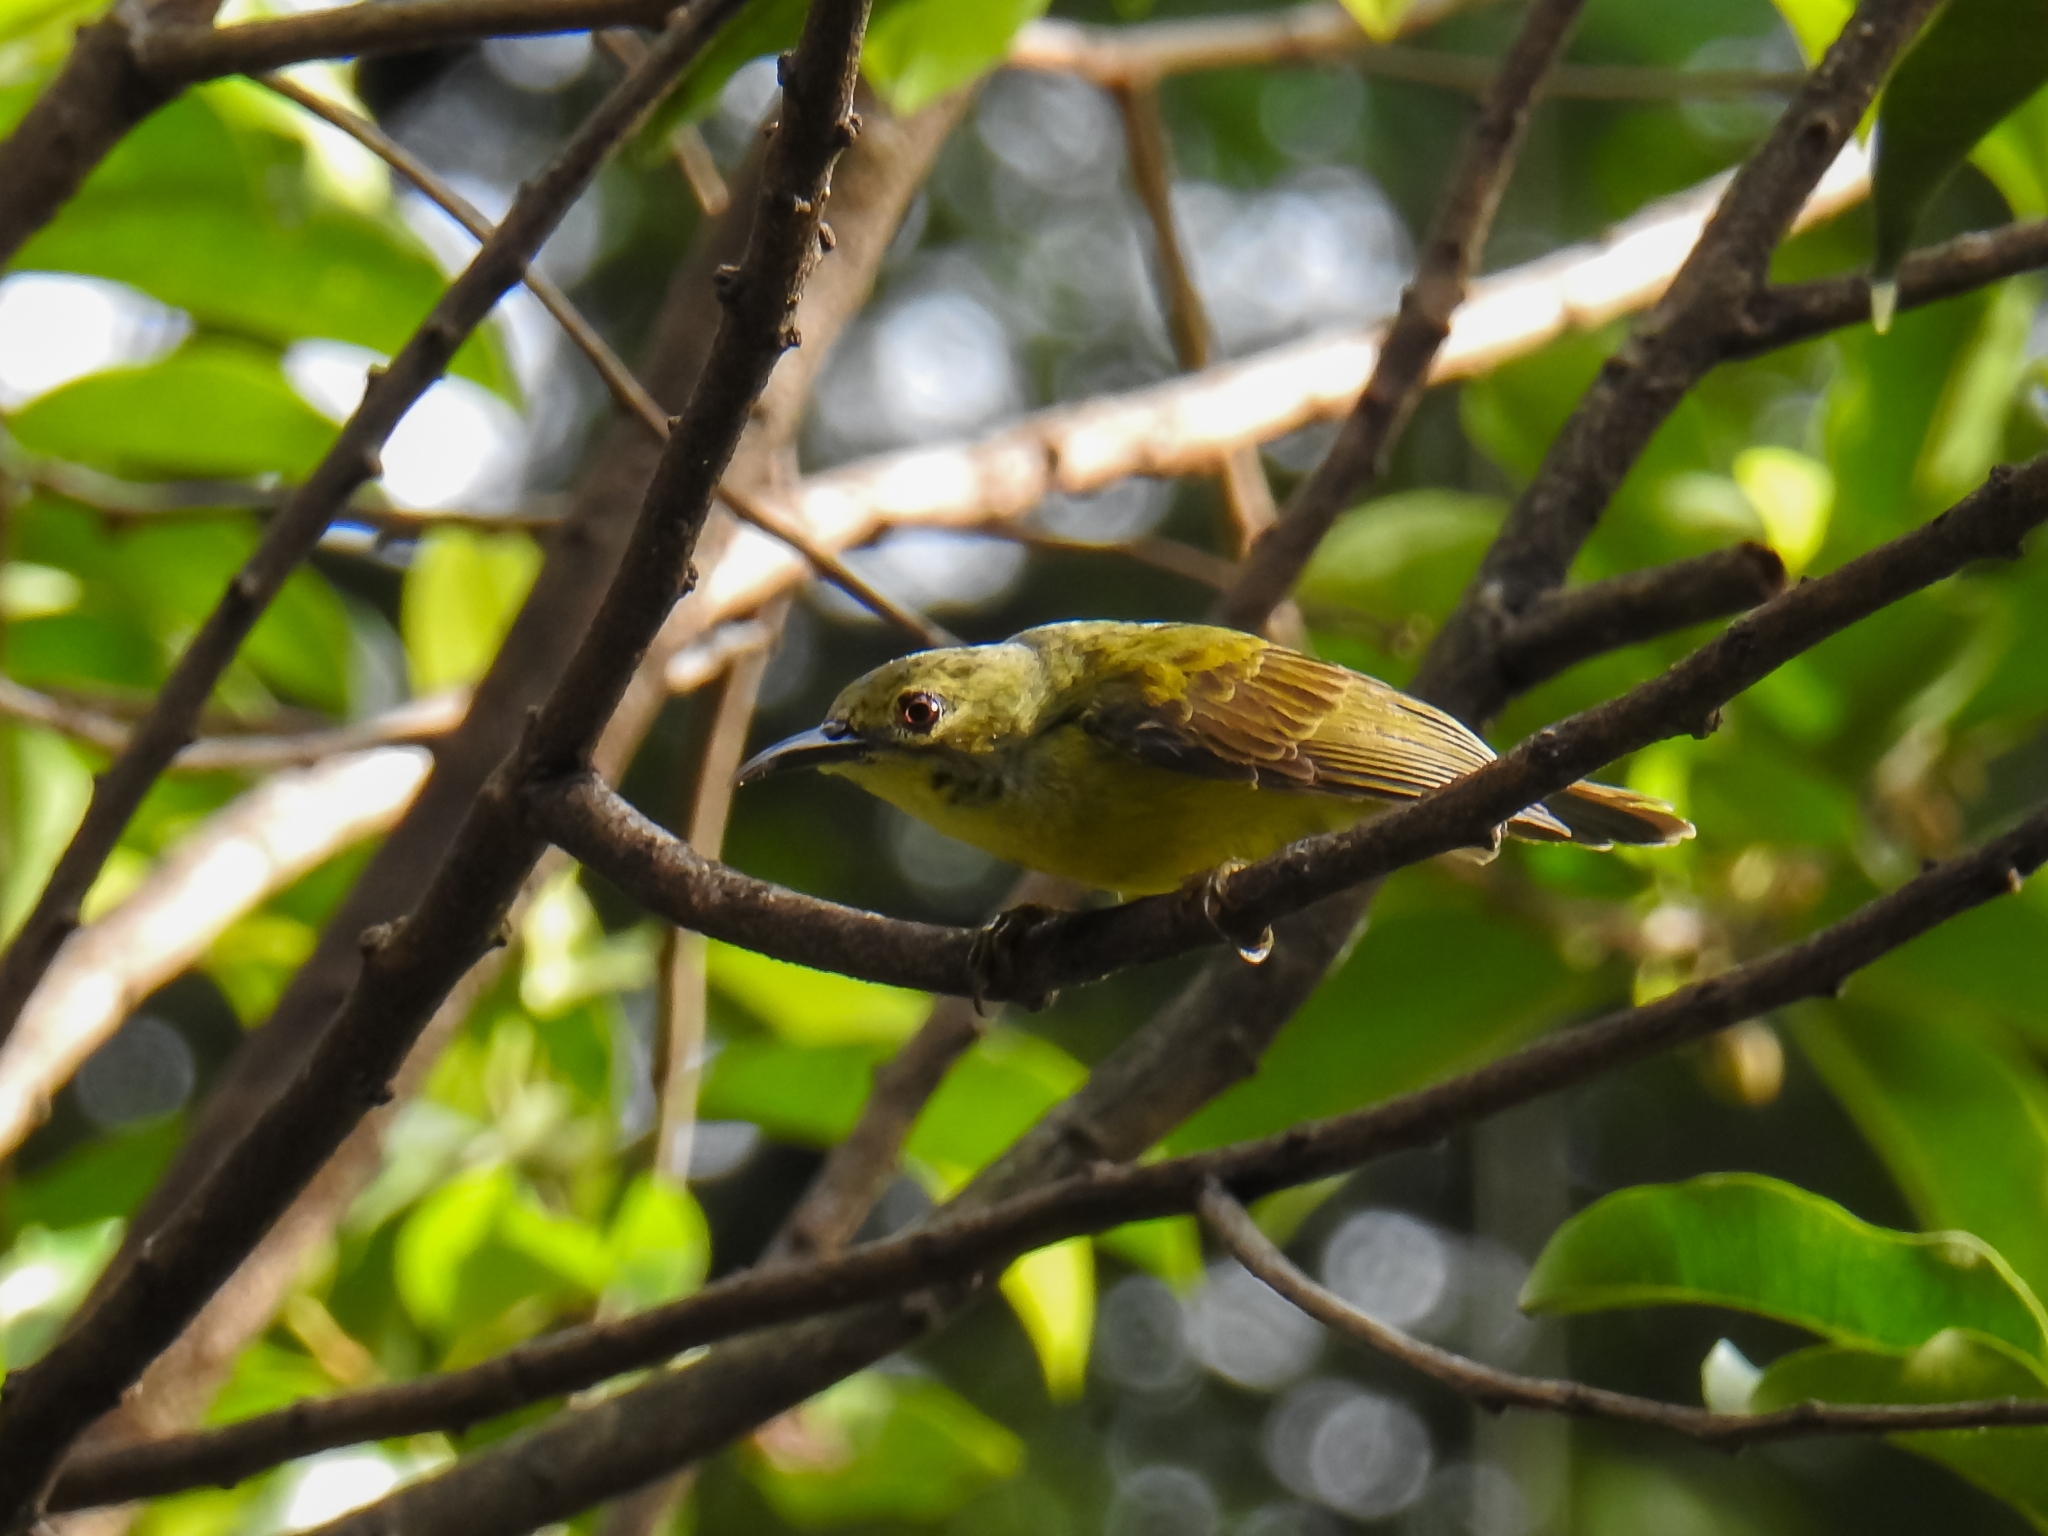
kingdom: Animalia
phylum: Chordata
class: Aves
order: Passeriformes
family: Nectariniidae
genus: Anthreptes
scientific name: Anthreptes malacensis
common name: Brown-throated sunbird
